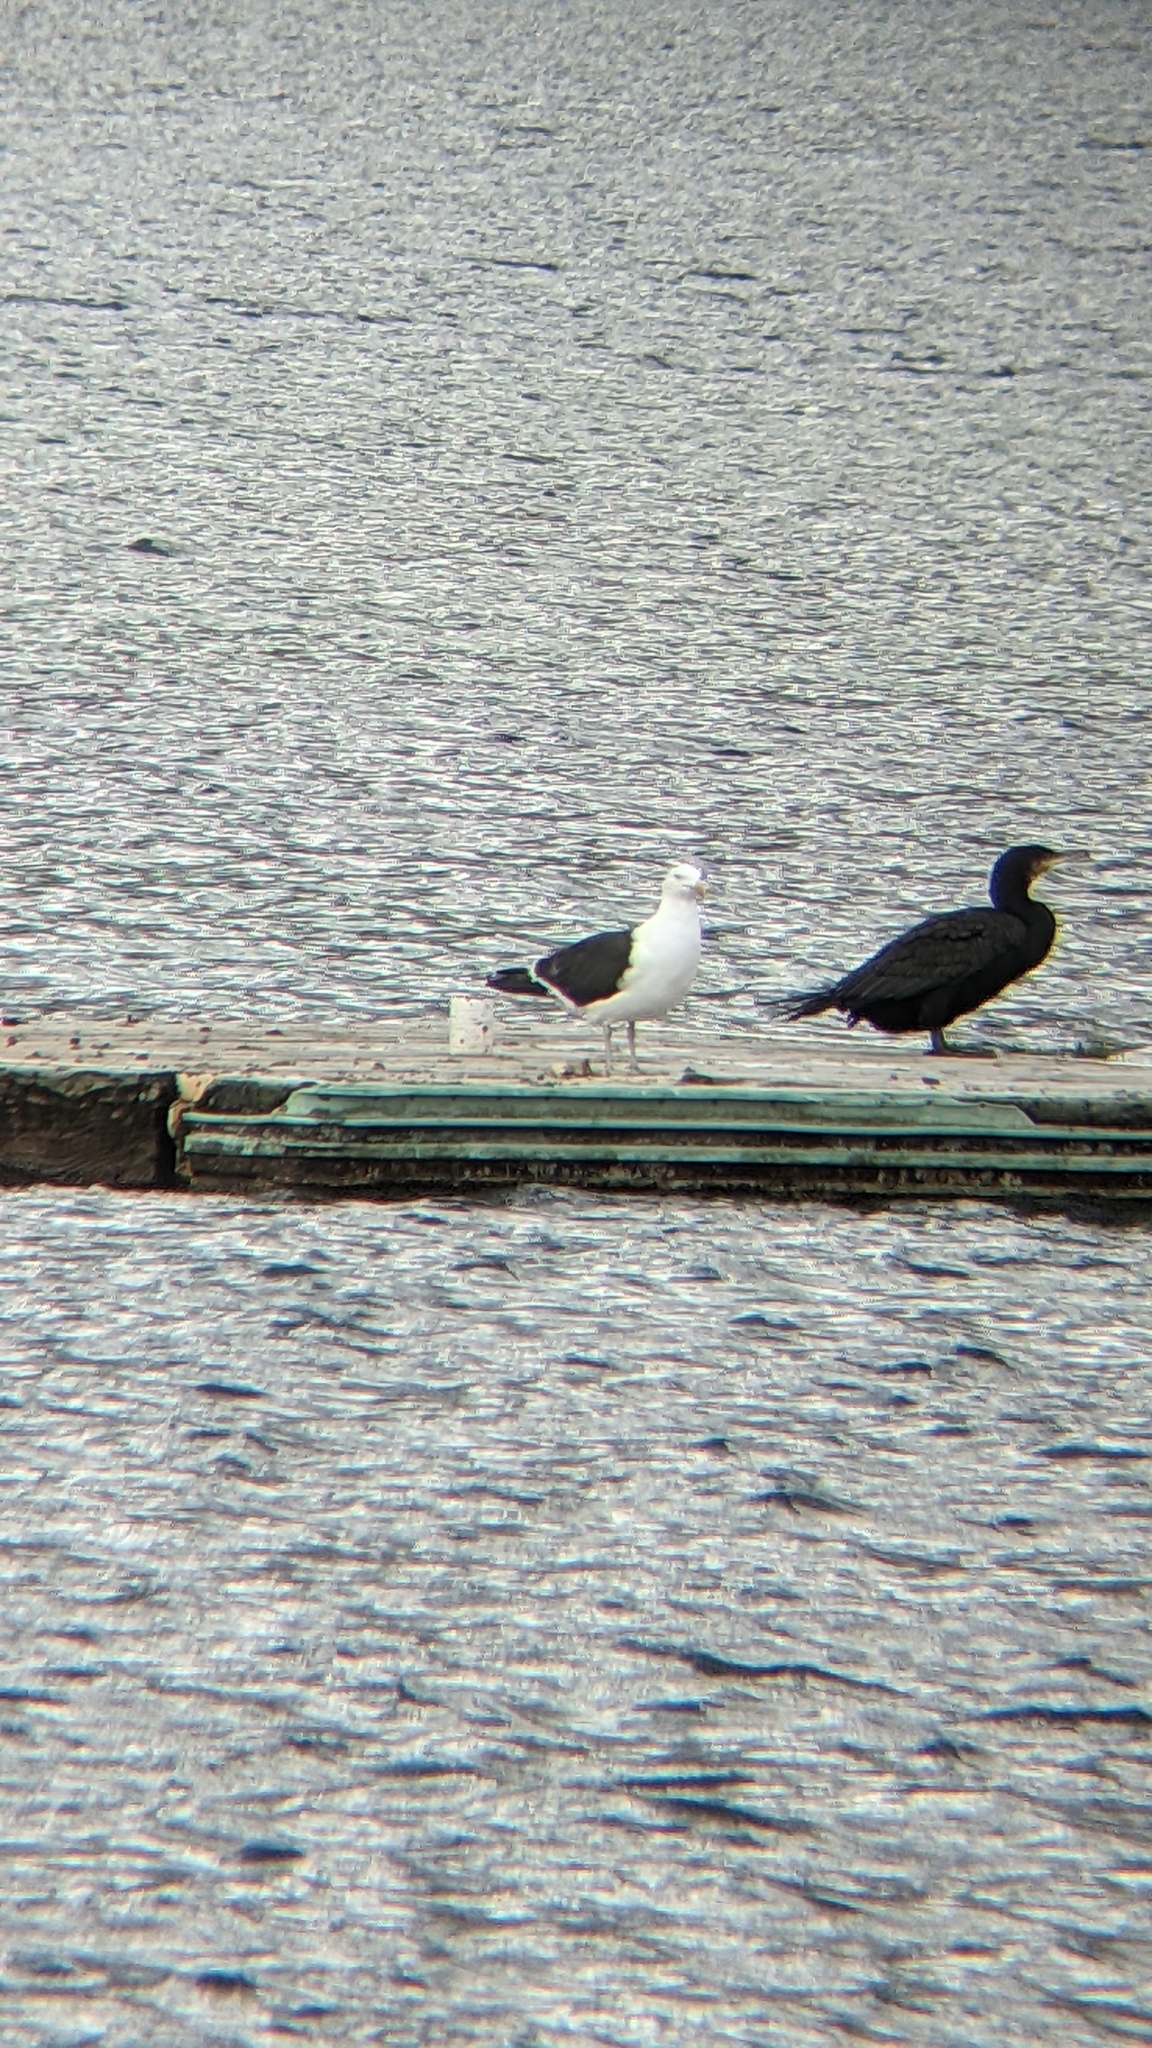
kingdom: Animalia
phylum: Chordata
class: Aves
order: Charadriiformes
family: Laridae
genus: Larus
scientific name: Larus dominicanus
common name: Kelp gull
